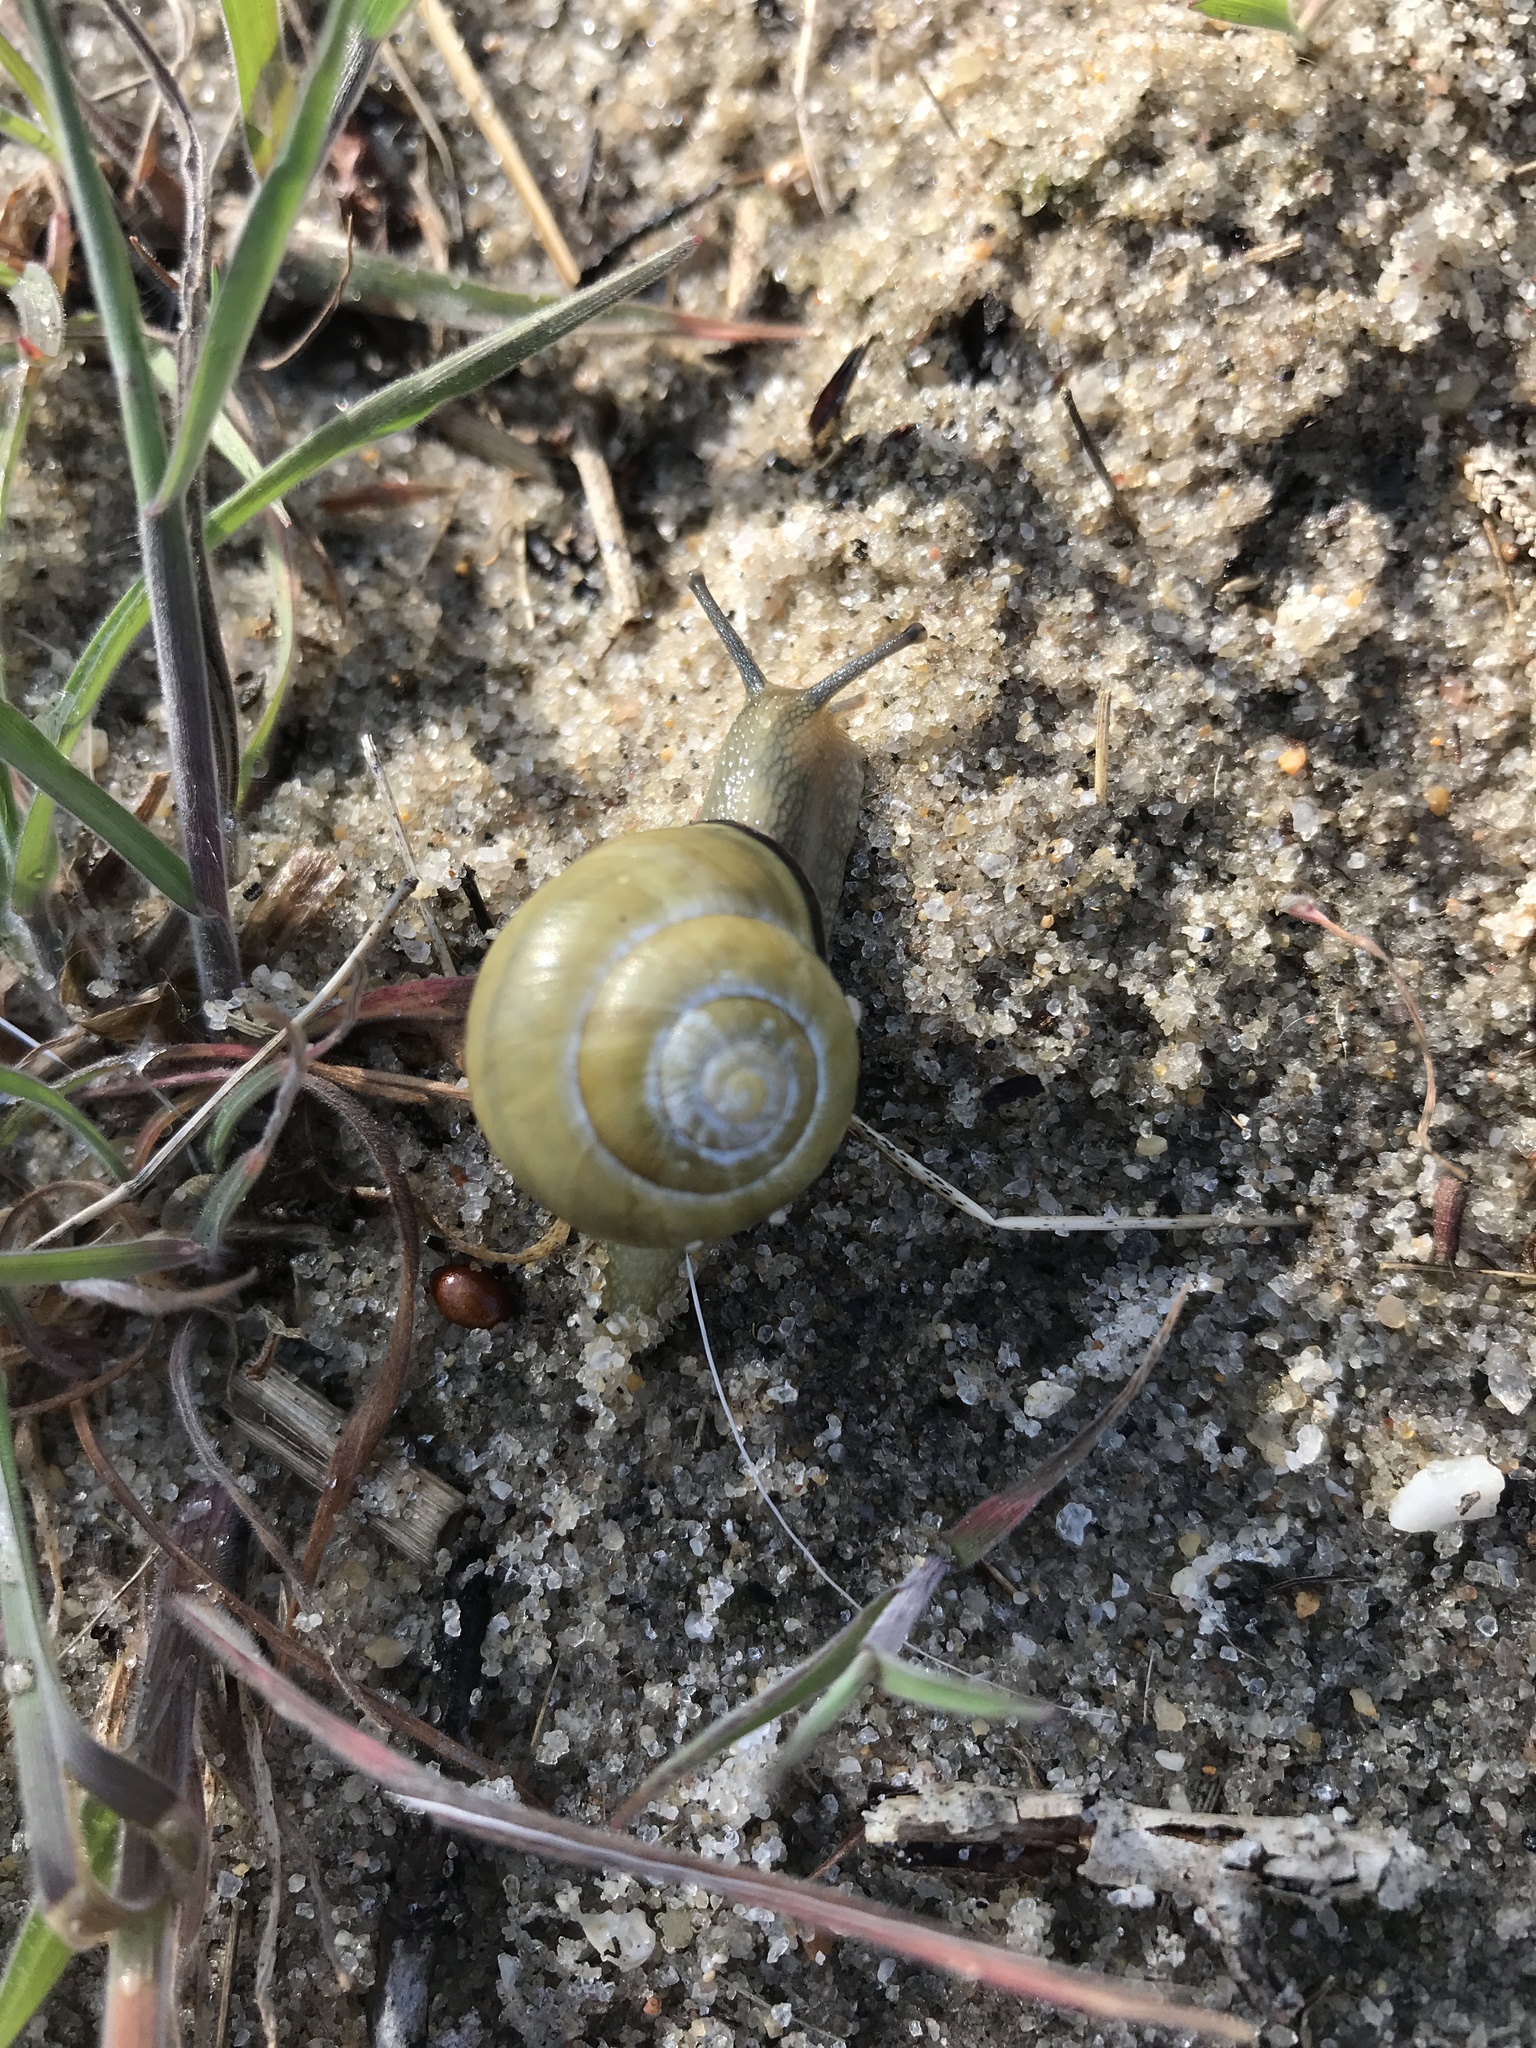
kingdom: Animalia
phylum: Mollusca
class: Gastropoda
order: Stylommatophora
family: Helicidae
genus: Cepaea
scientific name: Cepaea nemoralis
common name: Grovesnail
